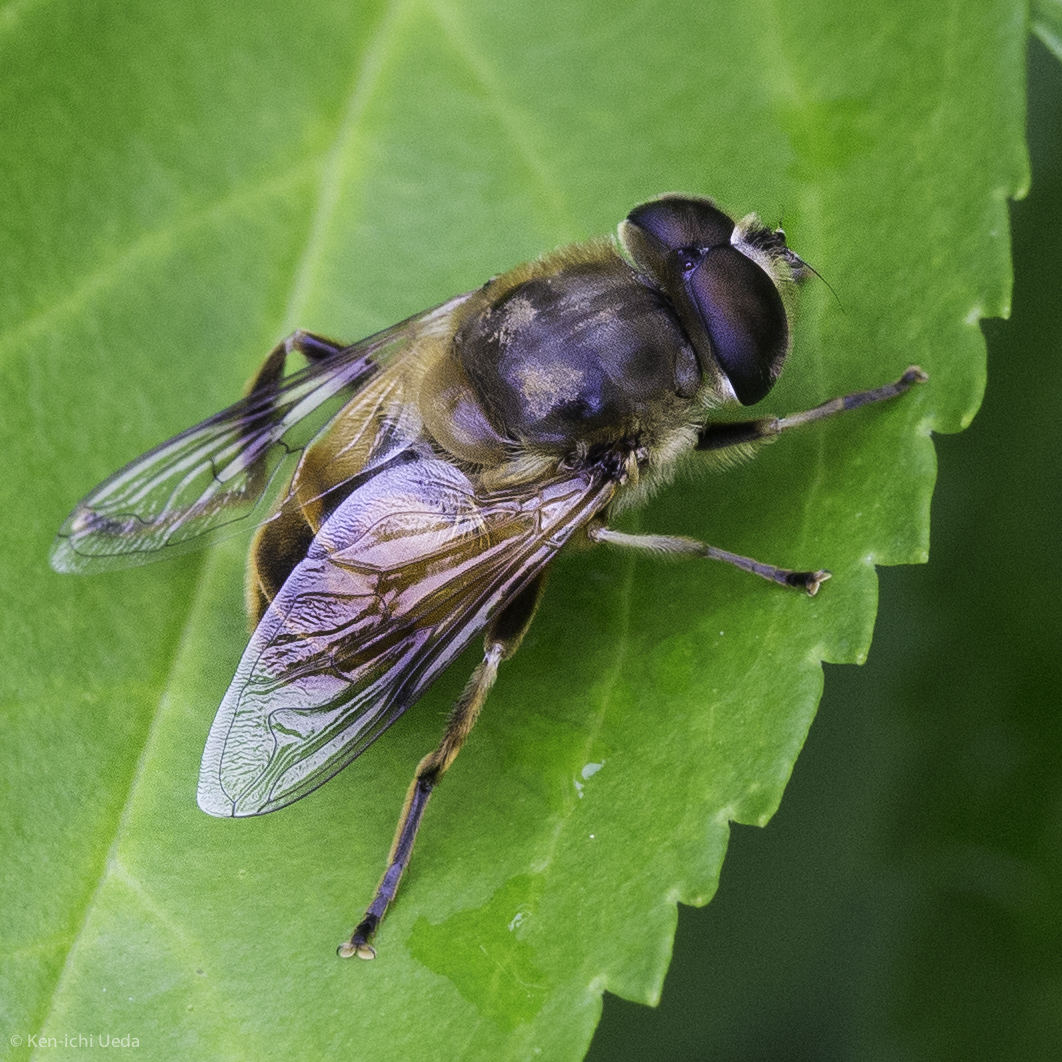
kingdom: Animalia
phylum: Arthropoda
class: Insecta
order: Diptera
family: Syrphidae
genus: Eristalis
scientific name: Eristalis tenax
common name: Drone fly
